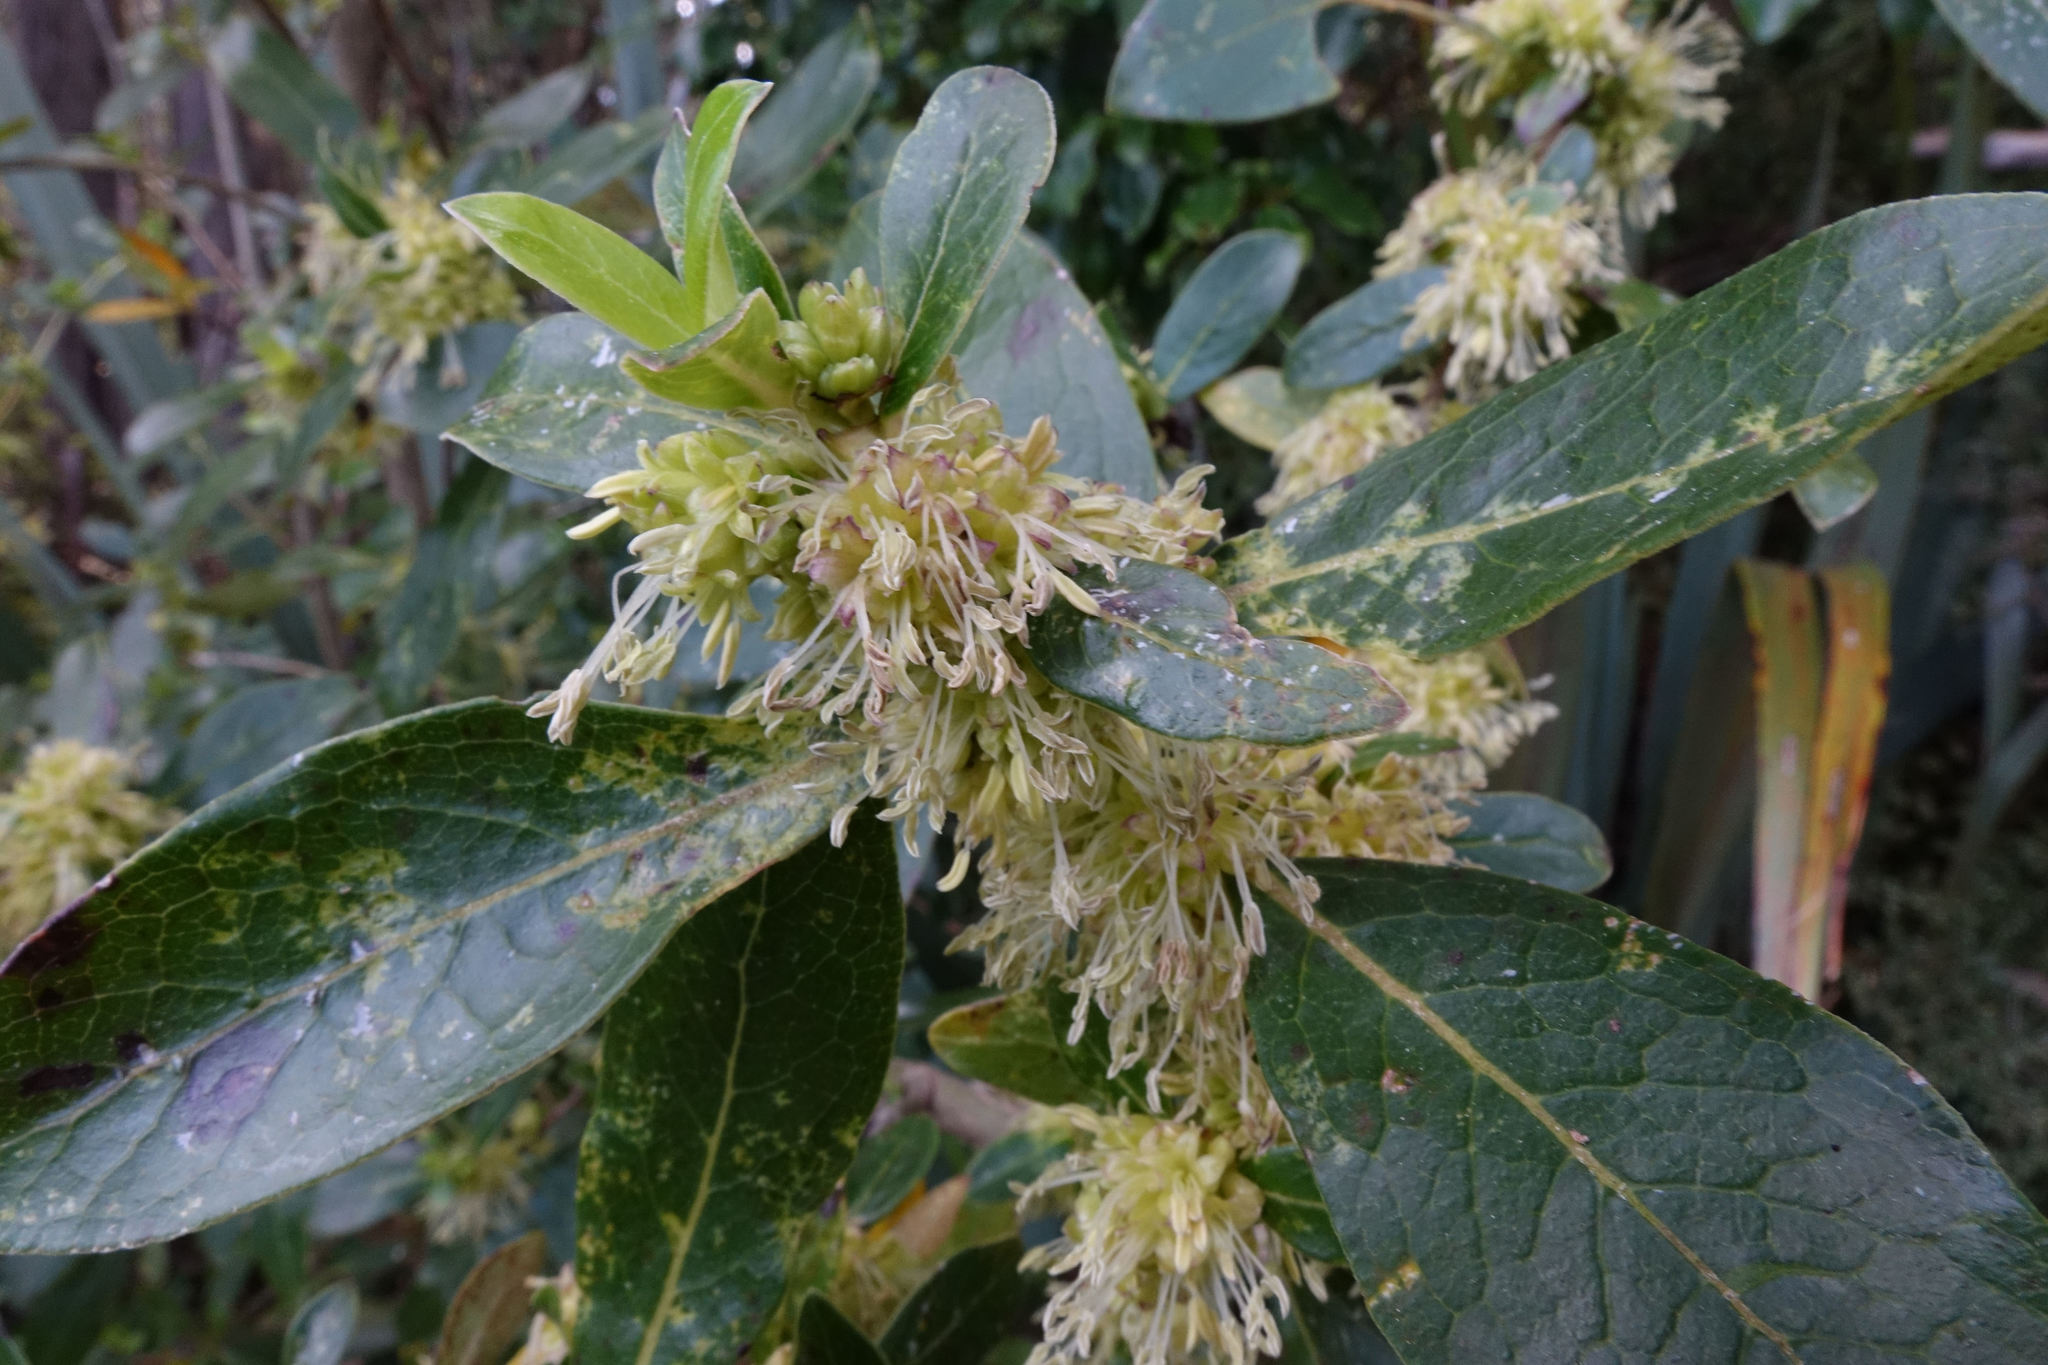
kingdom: Plantae
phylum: Tracheophyta
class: Magnoliopsida
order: Gentianales
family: Rubiaceae
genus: Coprosma
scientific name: Coprosma robusta
